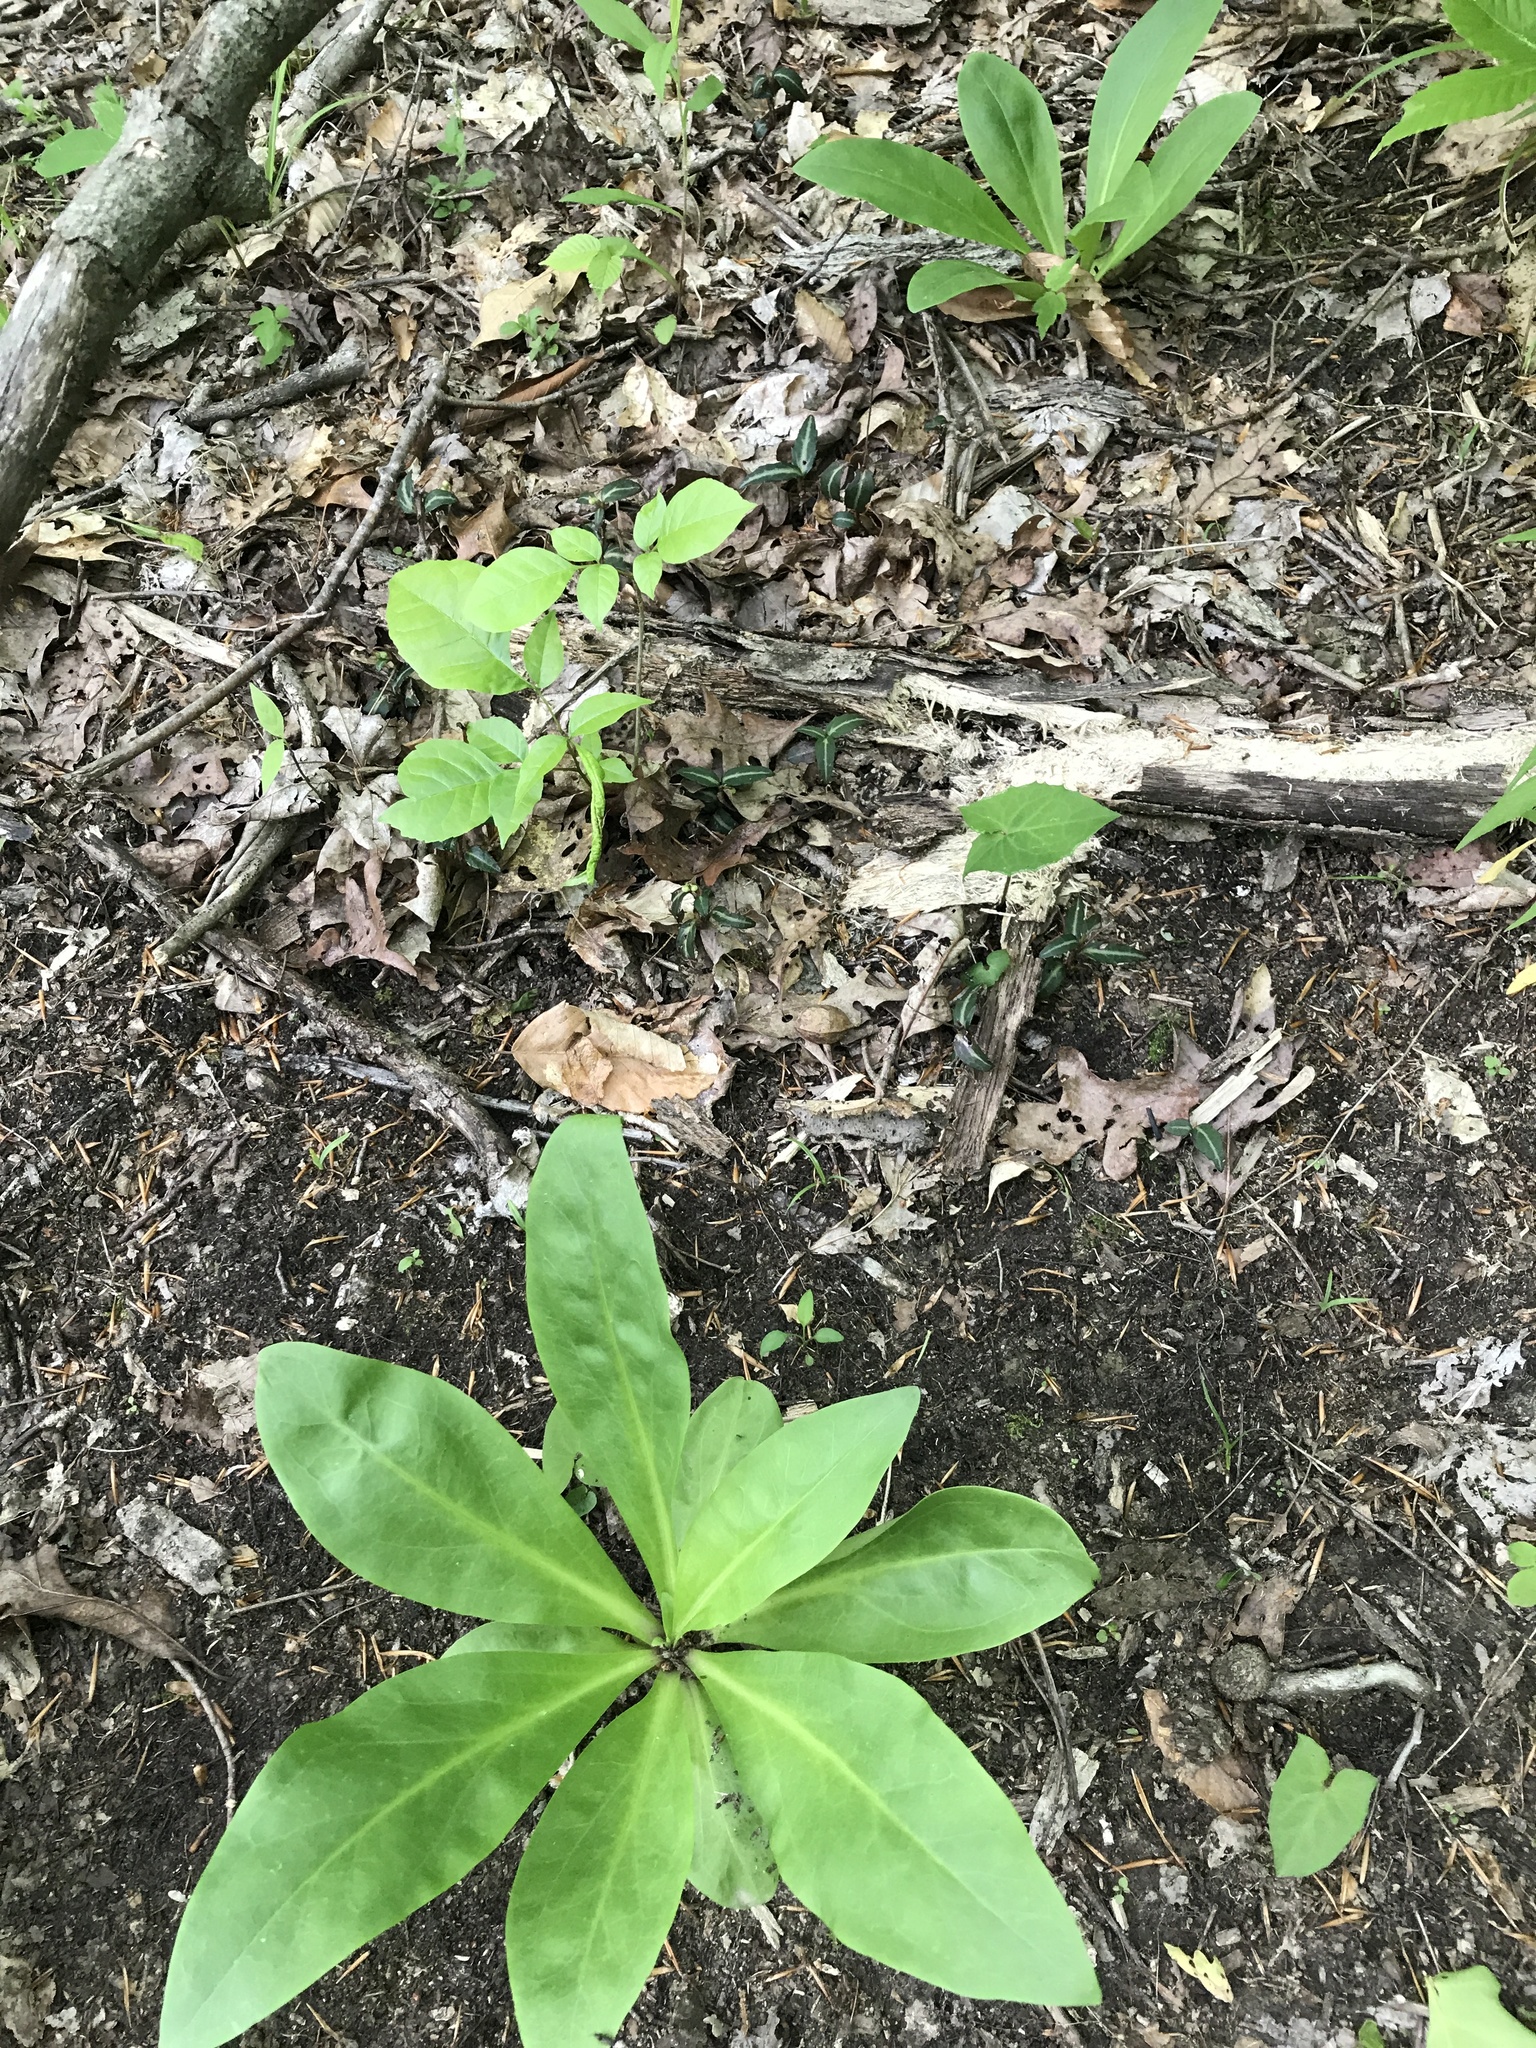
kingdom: Plantae
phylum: Tracheophyta
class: Magnoliopsida
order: Ericales
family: Ericaceae
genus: Chimaphila
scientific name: Chimaphila maculata
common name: Spotted pipsissewa
